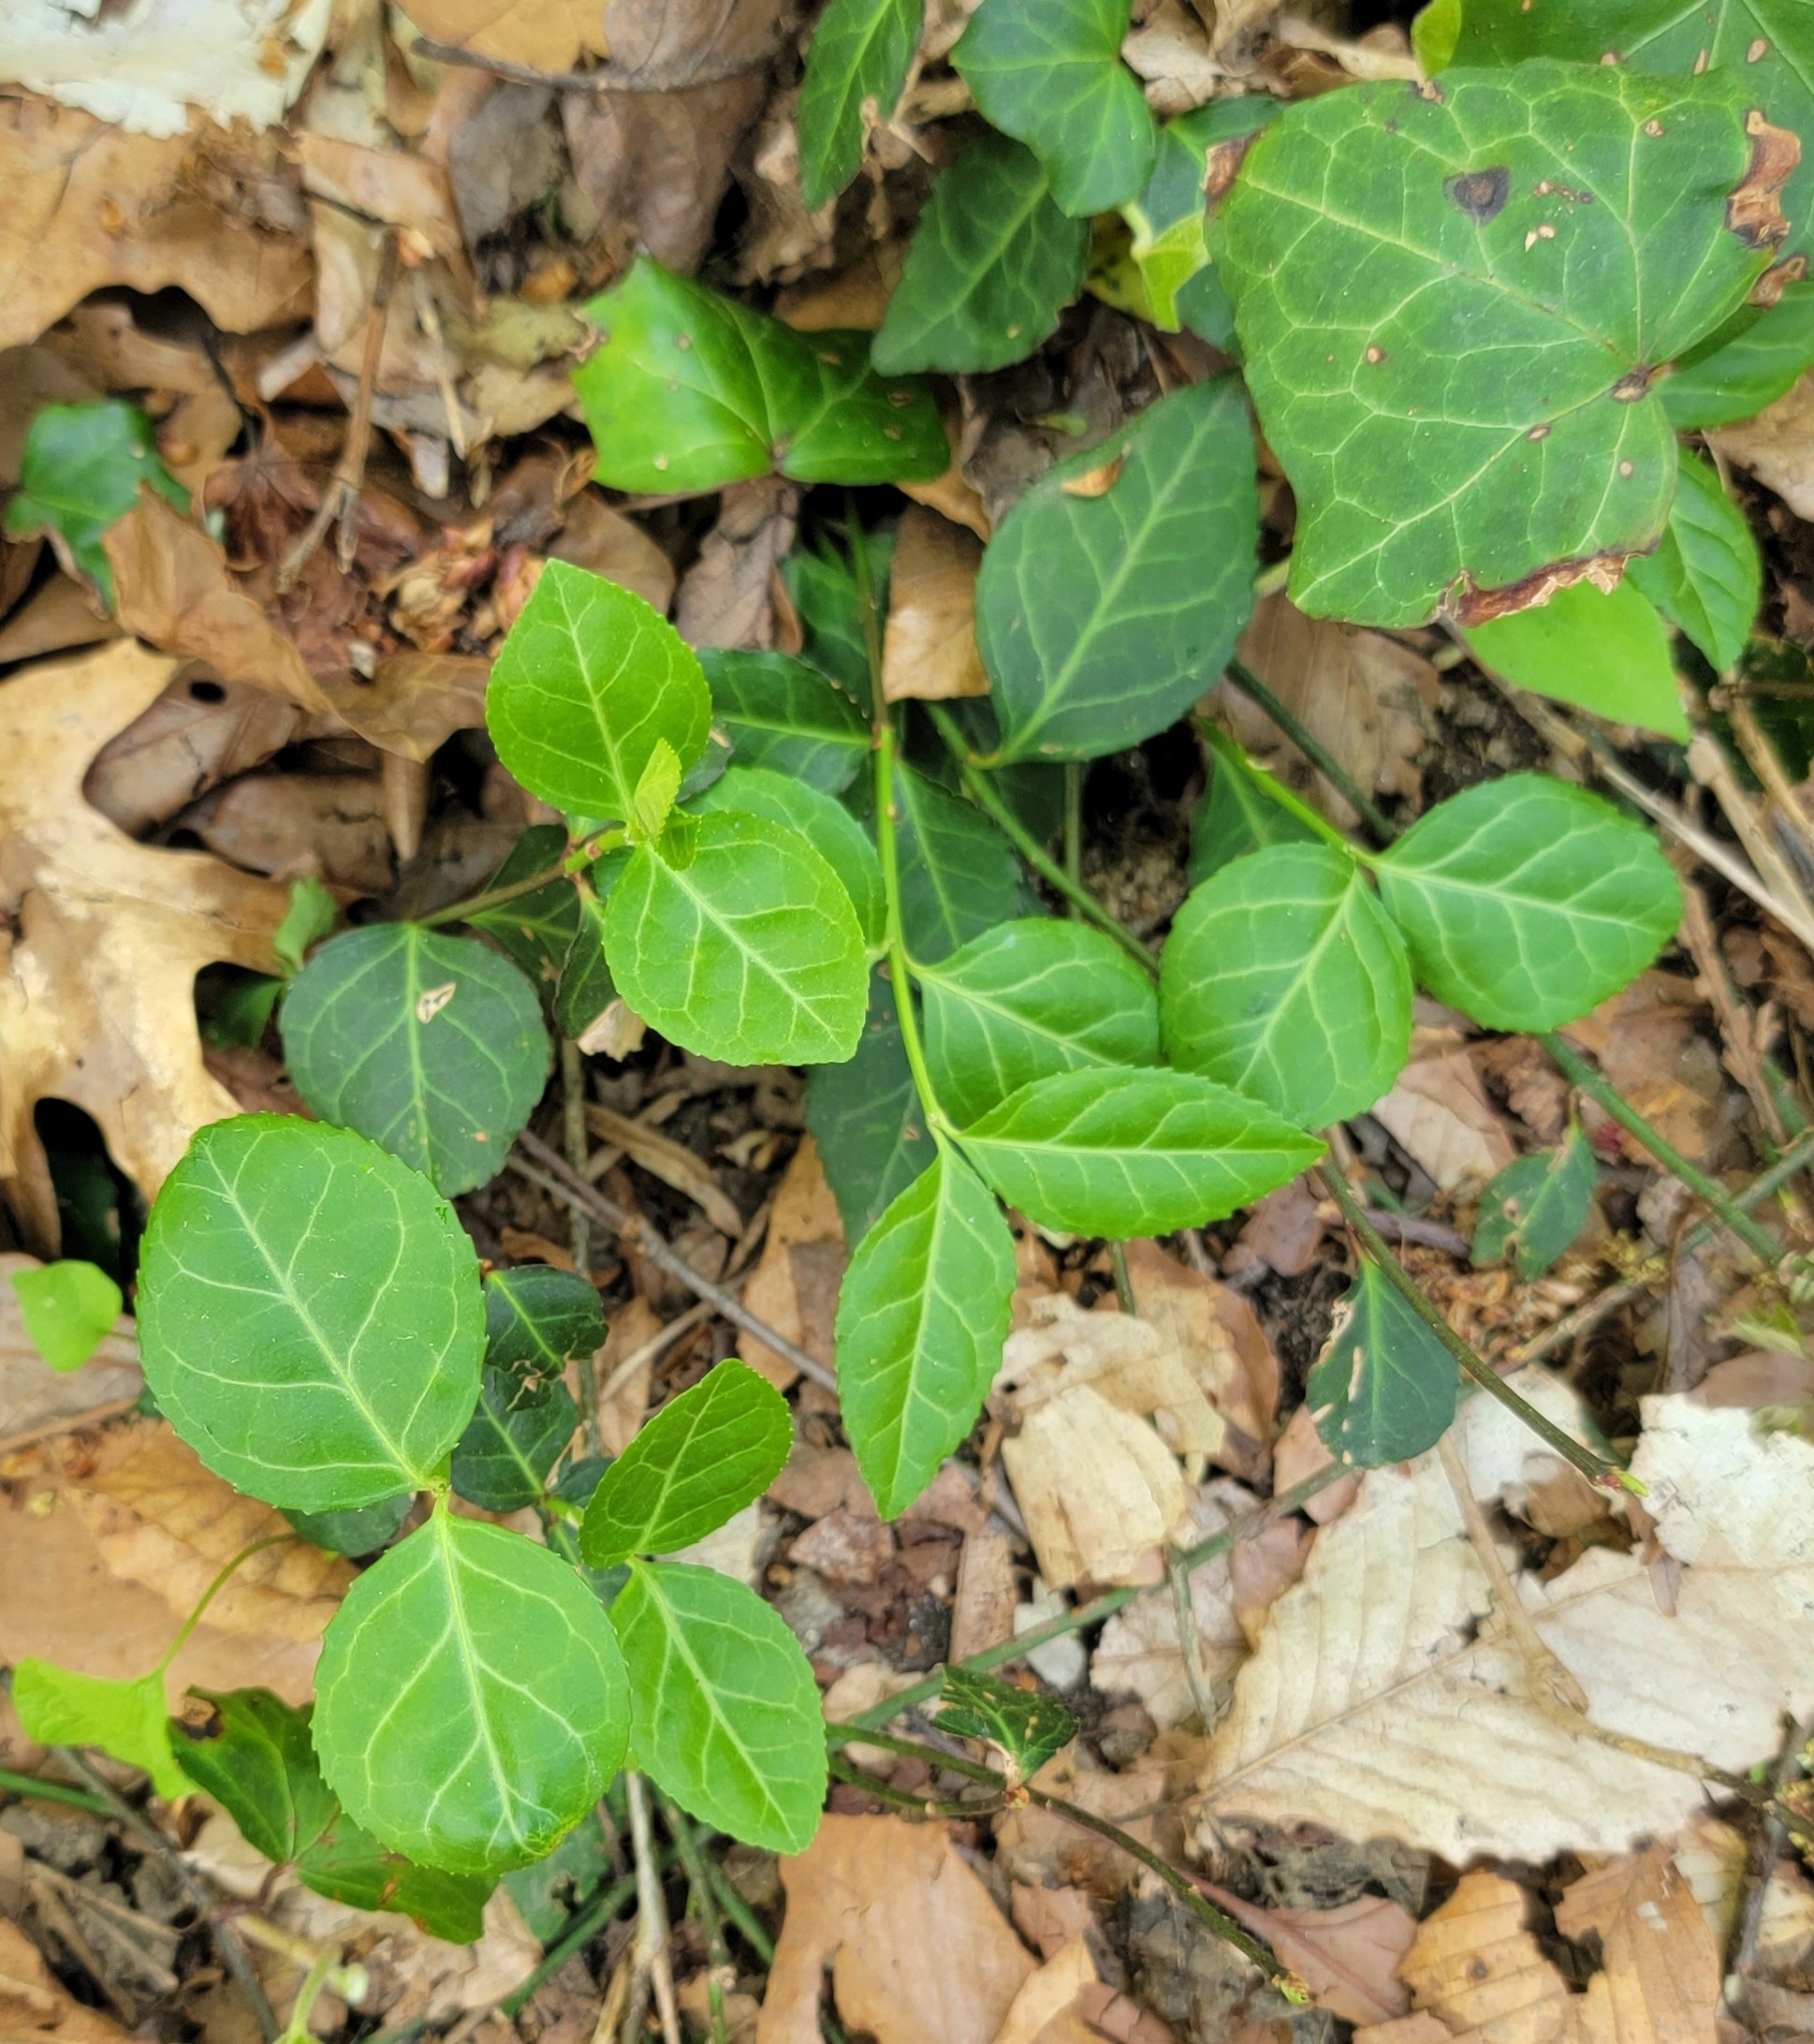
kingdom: Plantae
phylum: Tracheophyta
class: Magnoliopsida
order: Celastrales
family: Celastraceae
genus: Euonymus
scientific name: Euonymus fortunei
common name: Climbing euonymus
